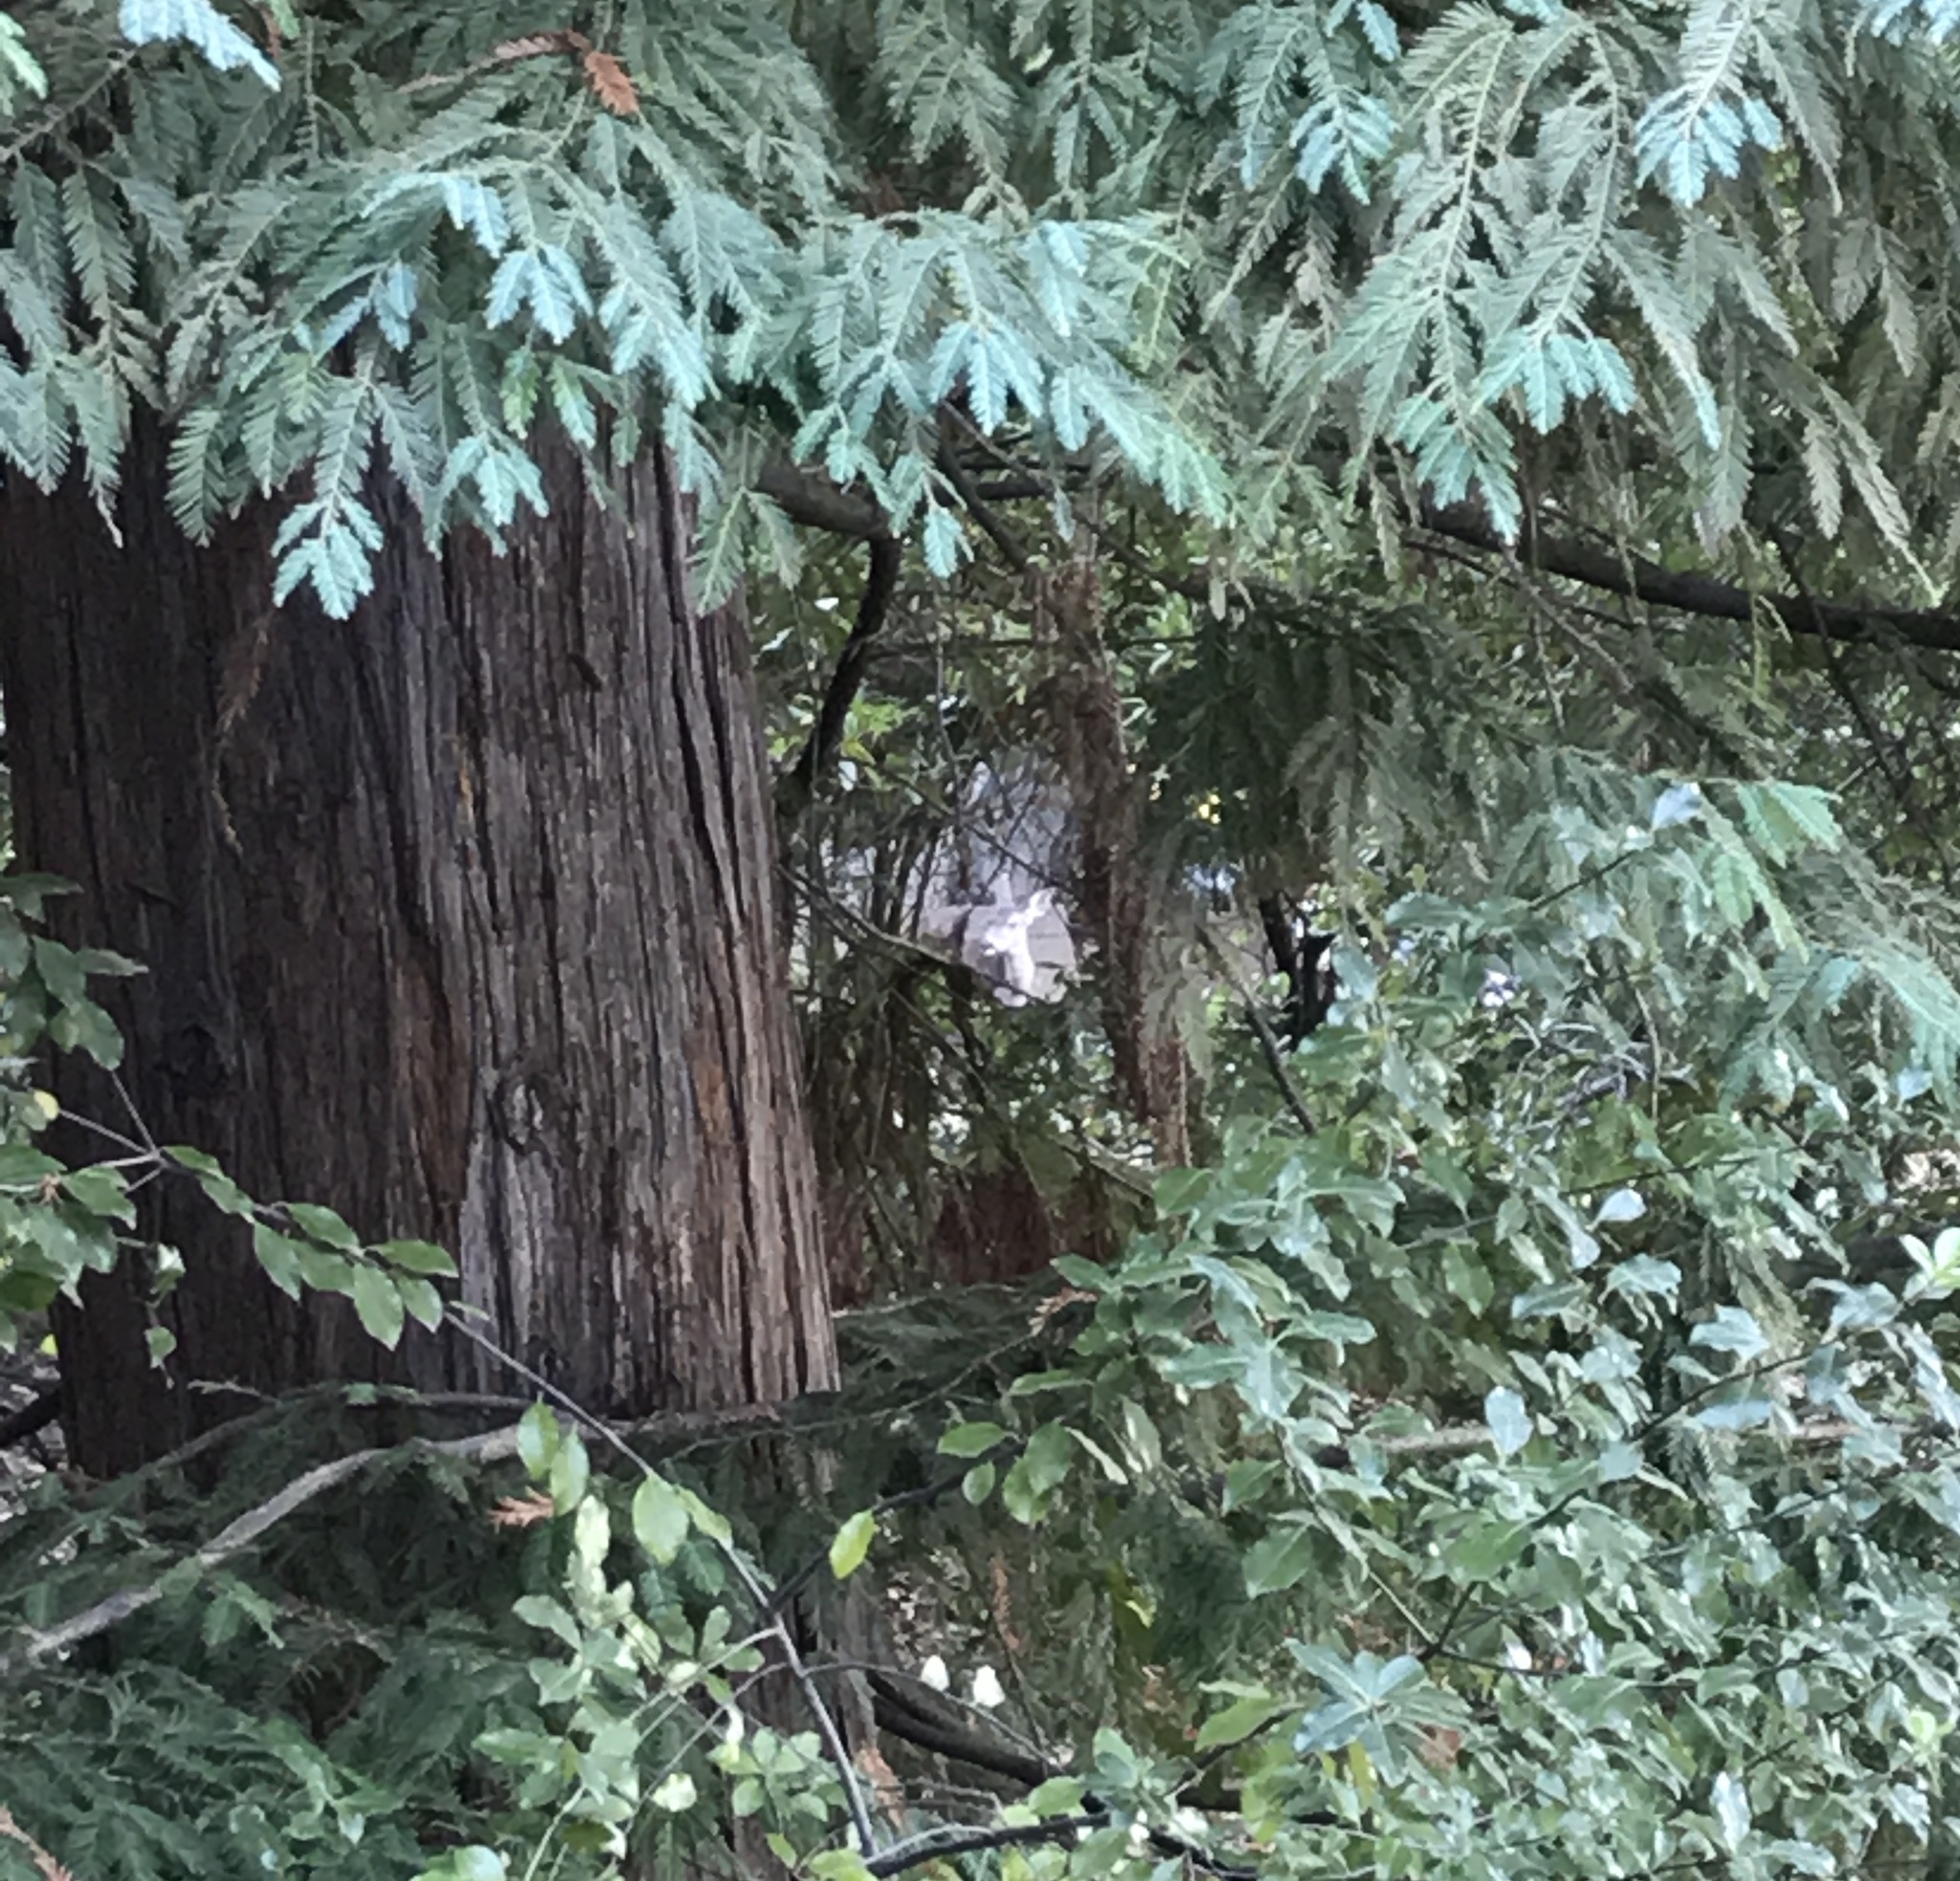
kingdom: Plantae
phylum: Tracheophyta
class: Pinopsida
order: Pinales
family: Cupressaceae
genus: Sequoia
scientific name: Sequoia sempervirens
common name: Coast redwood
